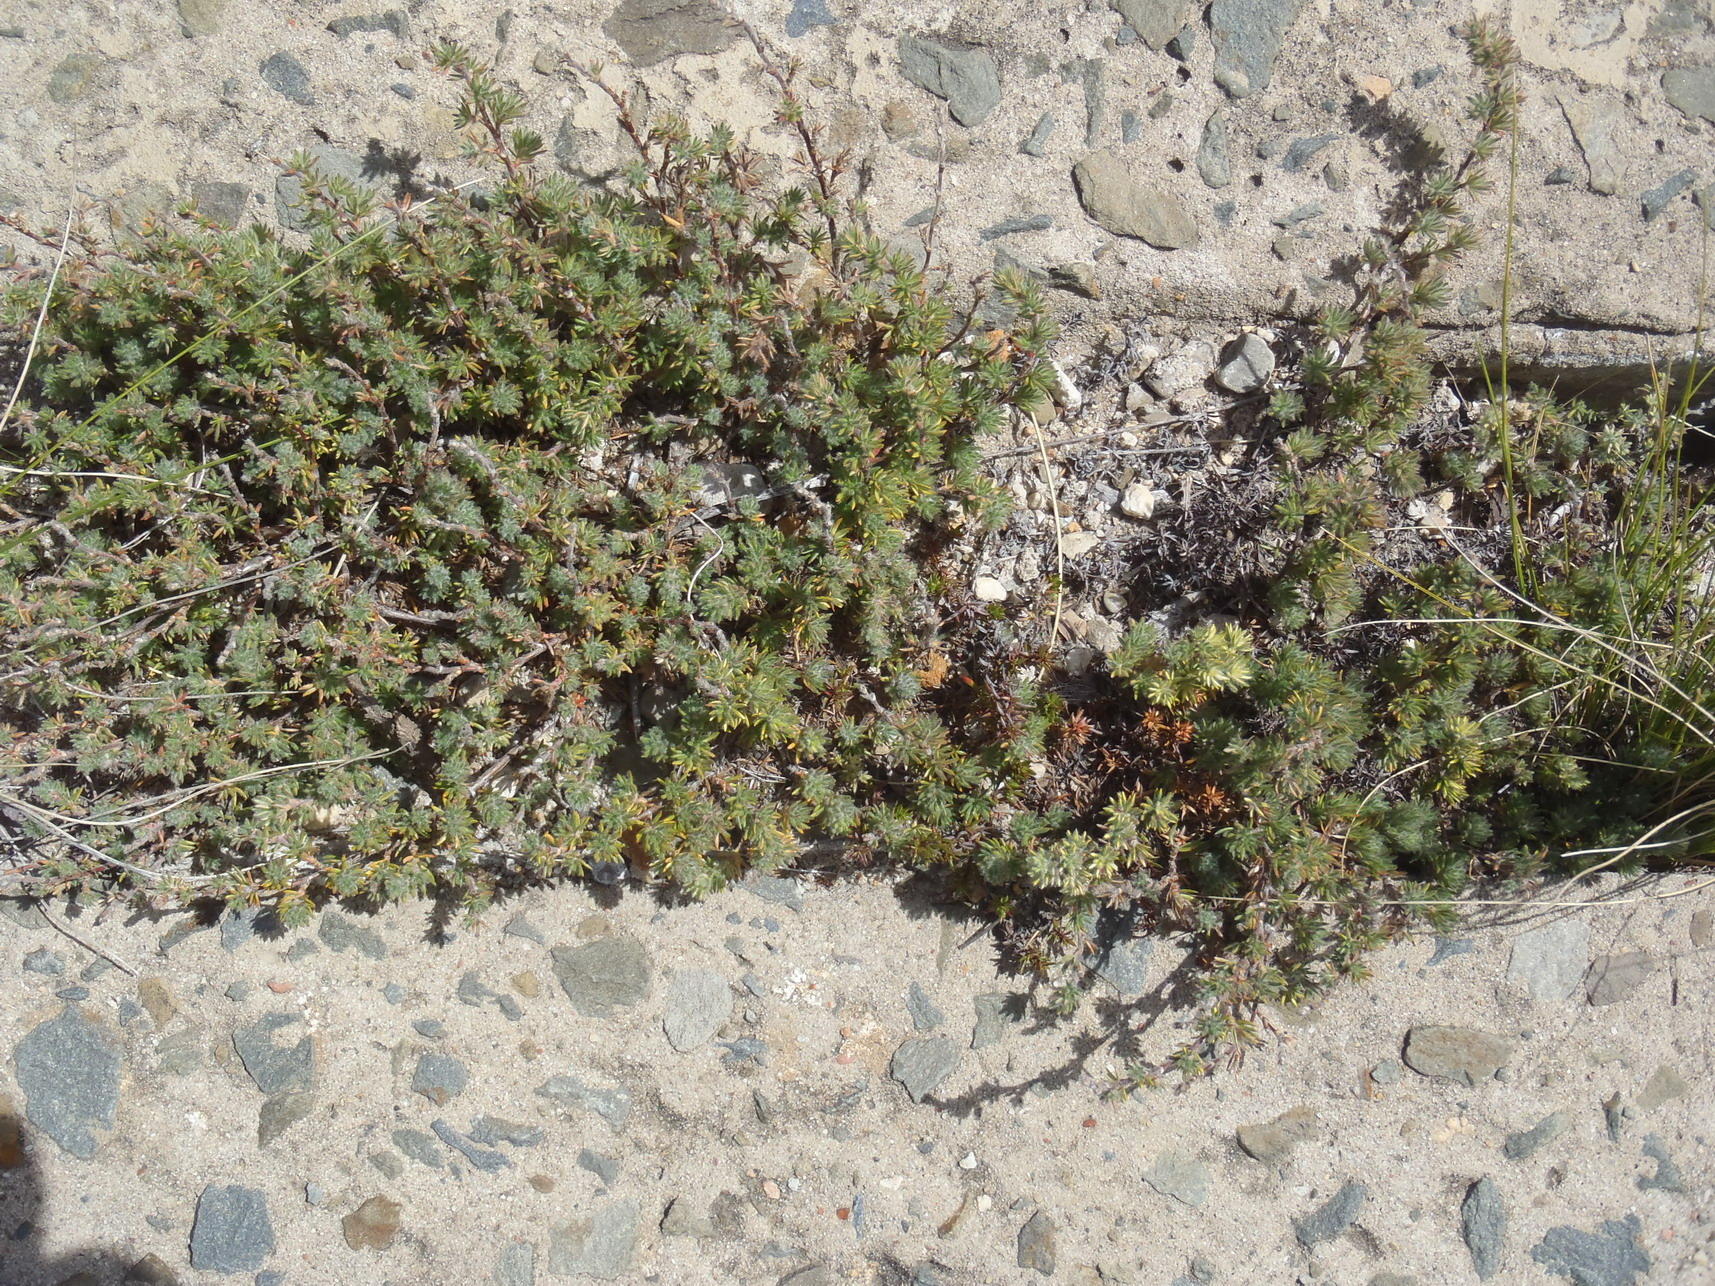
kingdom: Plantae
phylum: Tracheophyta
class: Magnoliopsida
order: Rosales
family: Rosaceae
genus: Cliffortia
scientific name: Cliffortia eriocephalina
